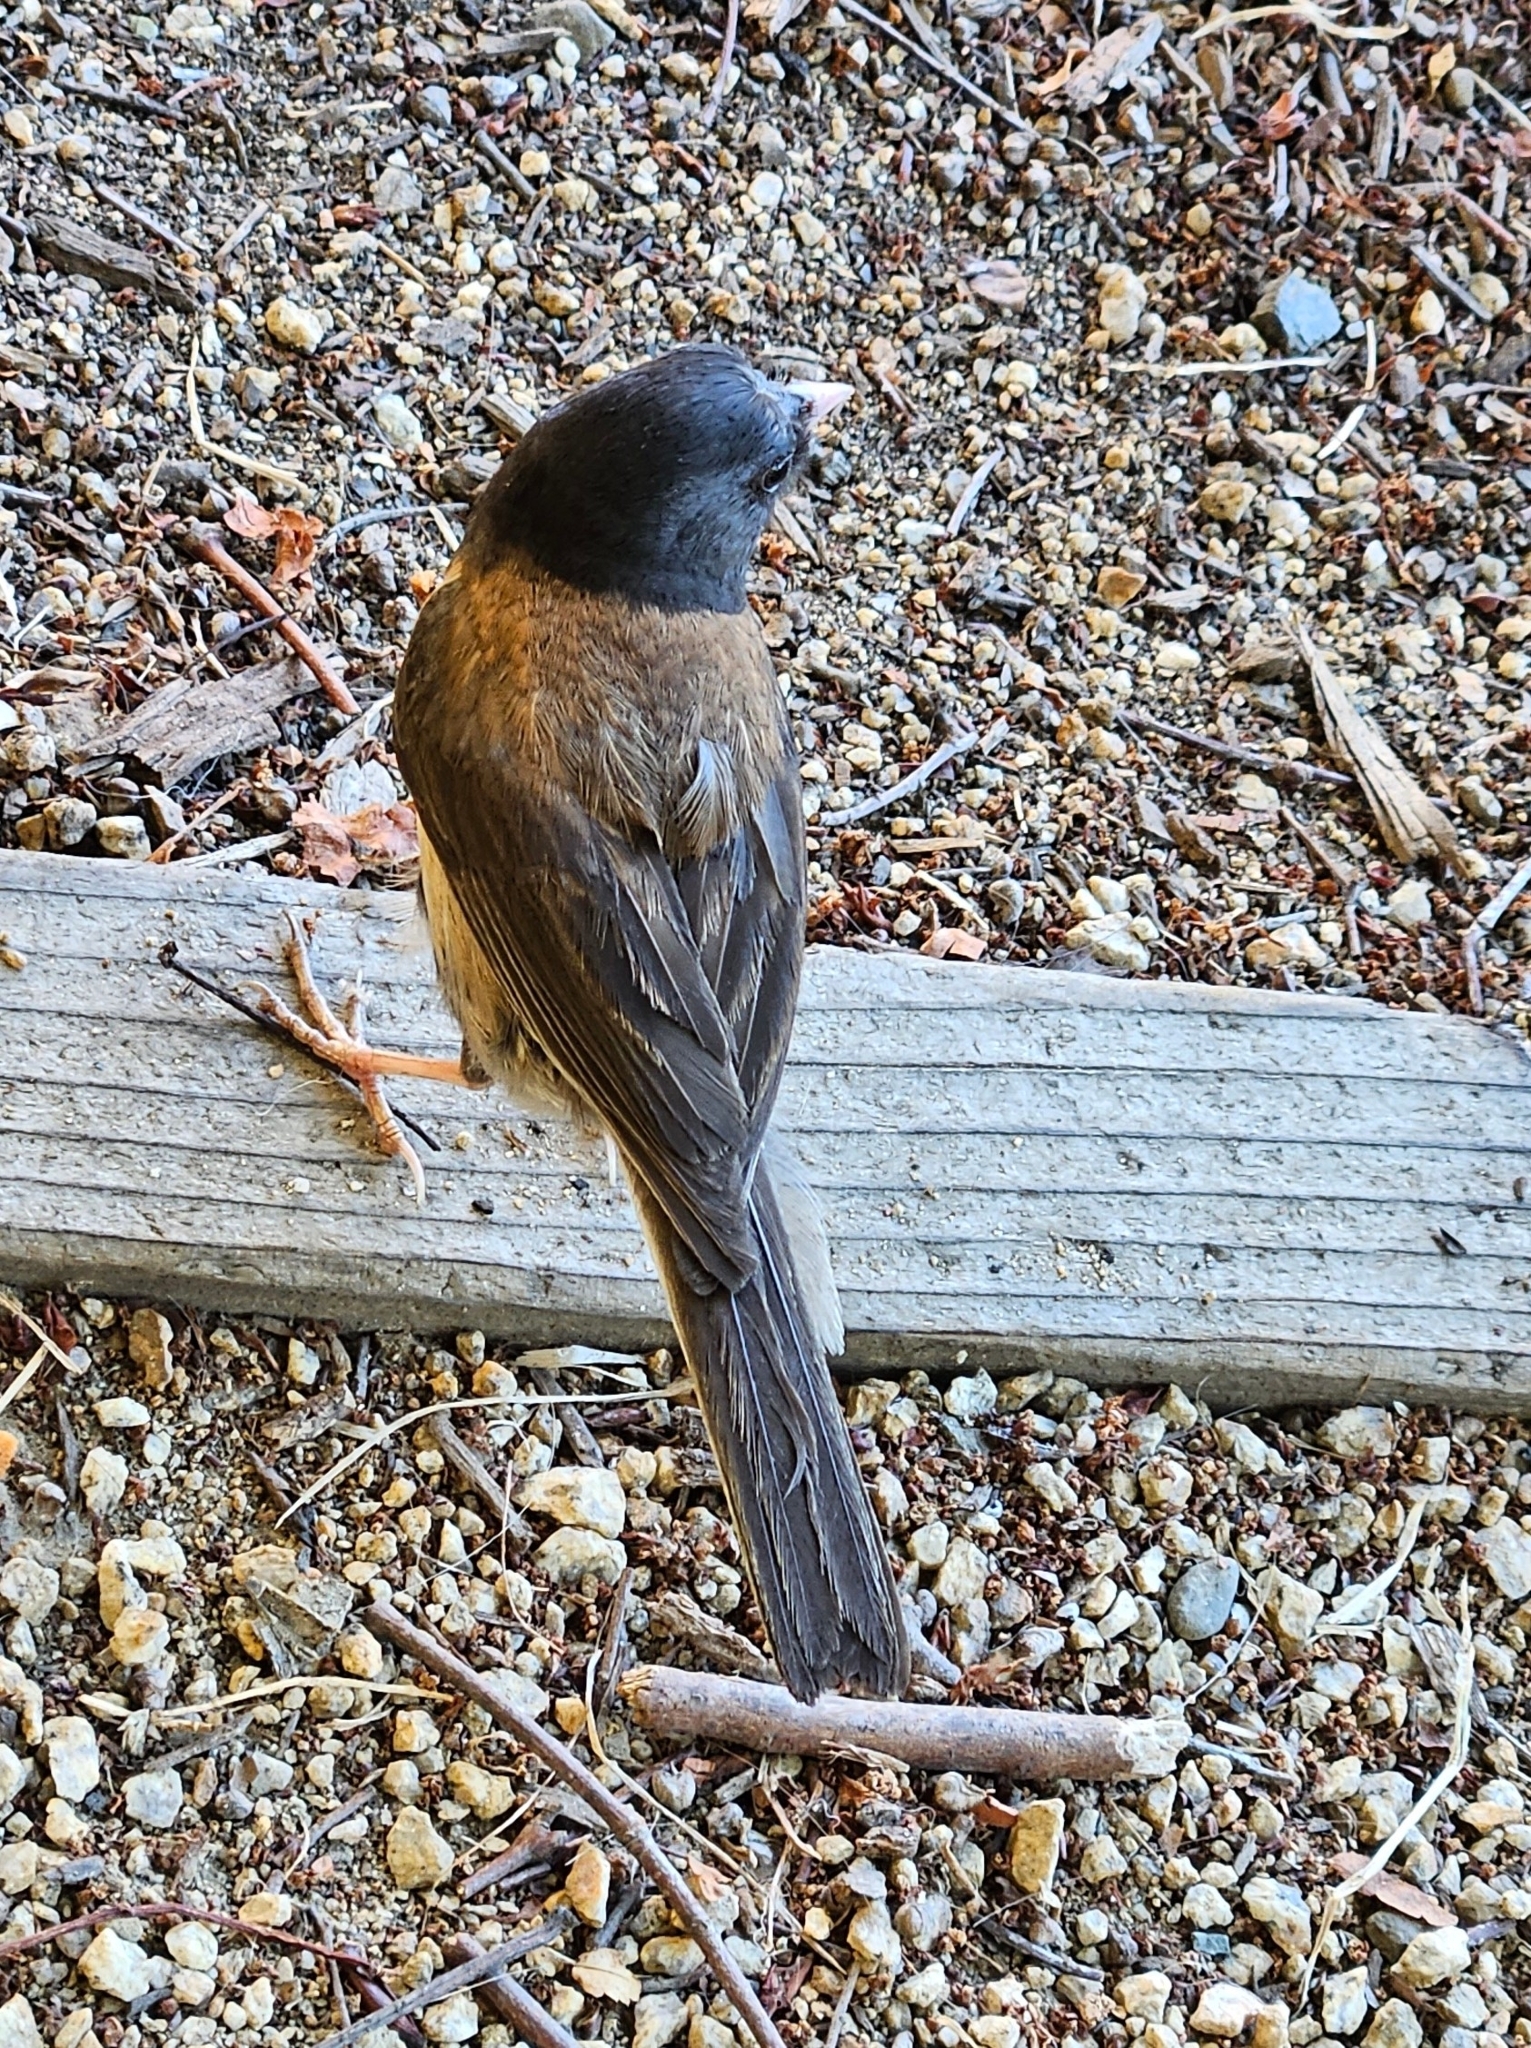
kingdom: Animalia
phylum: Chordata
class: Aves
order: Passeriformes
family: Passerellidae
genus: Junco
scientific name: Junco hyemalis
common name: Dark-eyed junco
